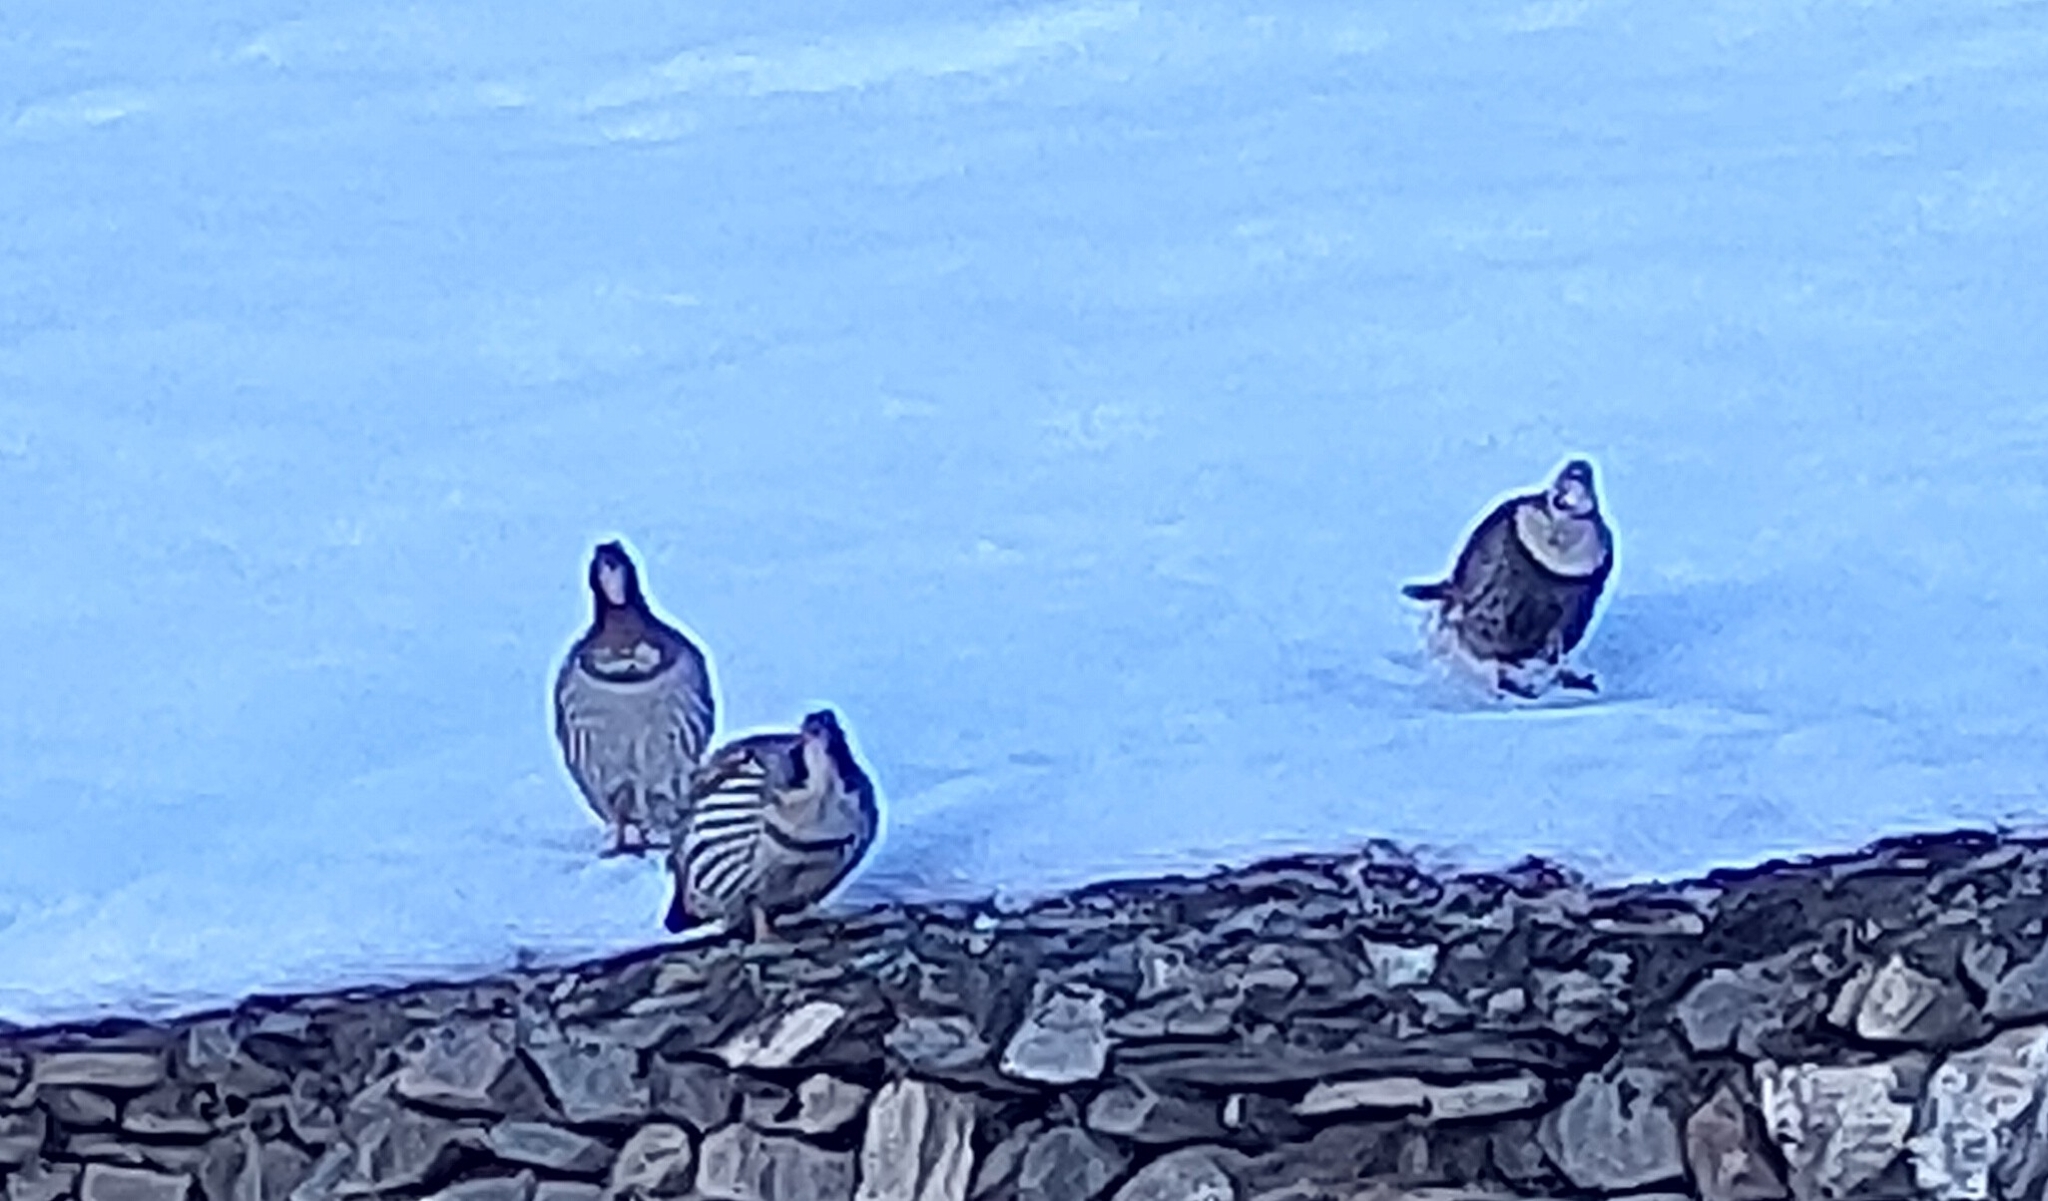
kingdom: Animalia
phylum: Chordata
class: Aves
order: Galliformes
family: Phasianidae
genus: Tetraogallus
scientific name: Tetraogallus tibetanus
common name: Tibetan snowcock
